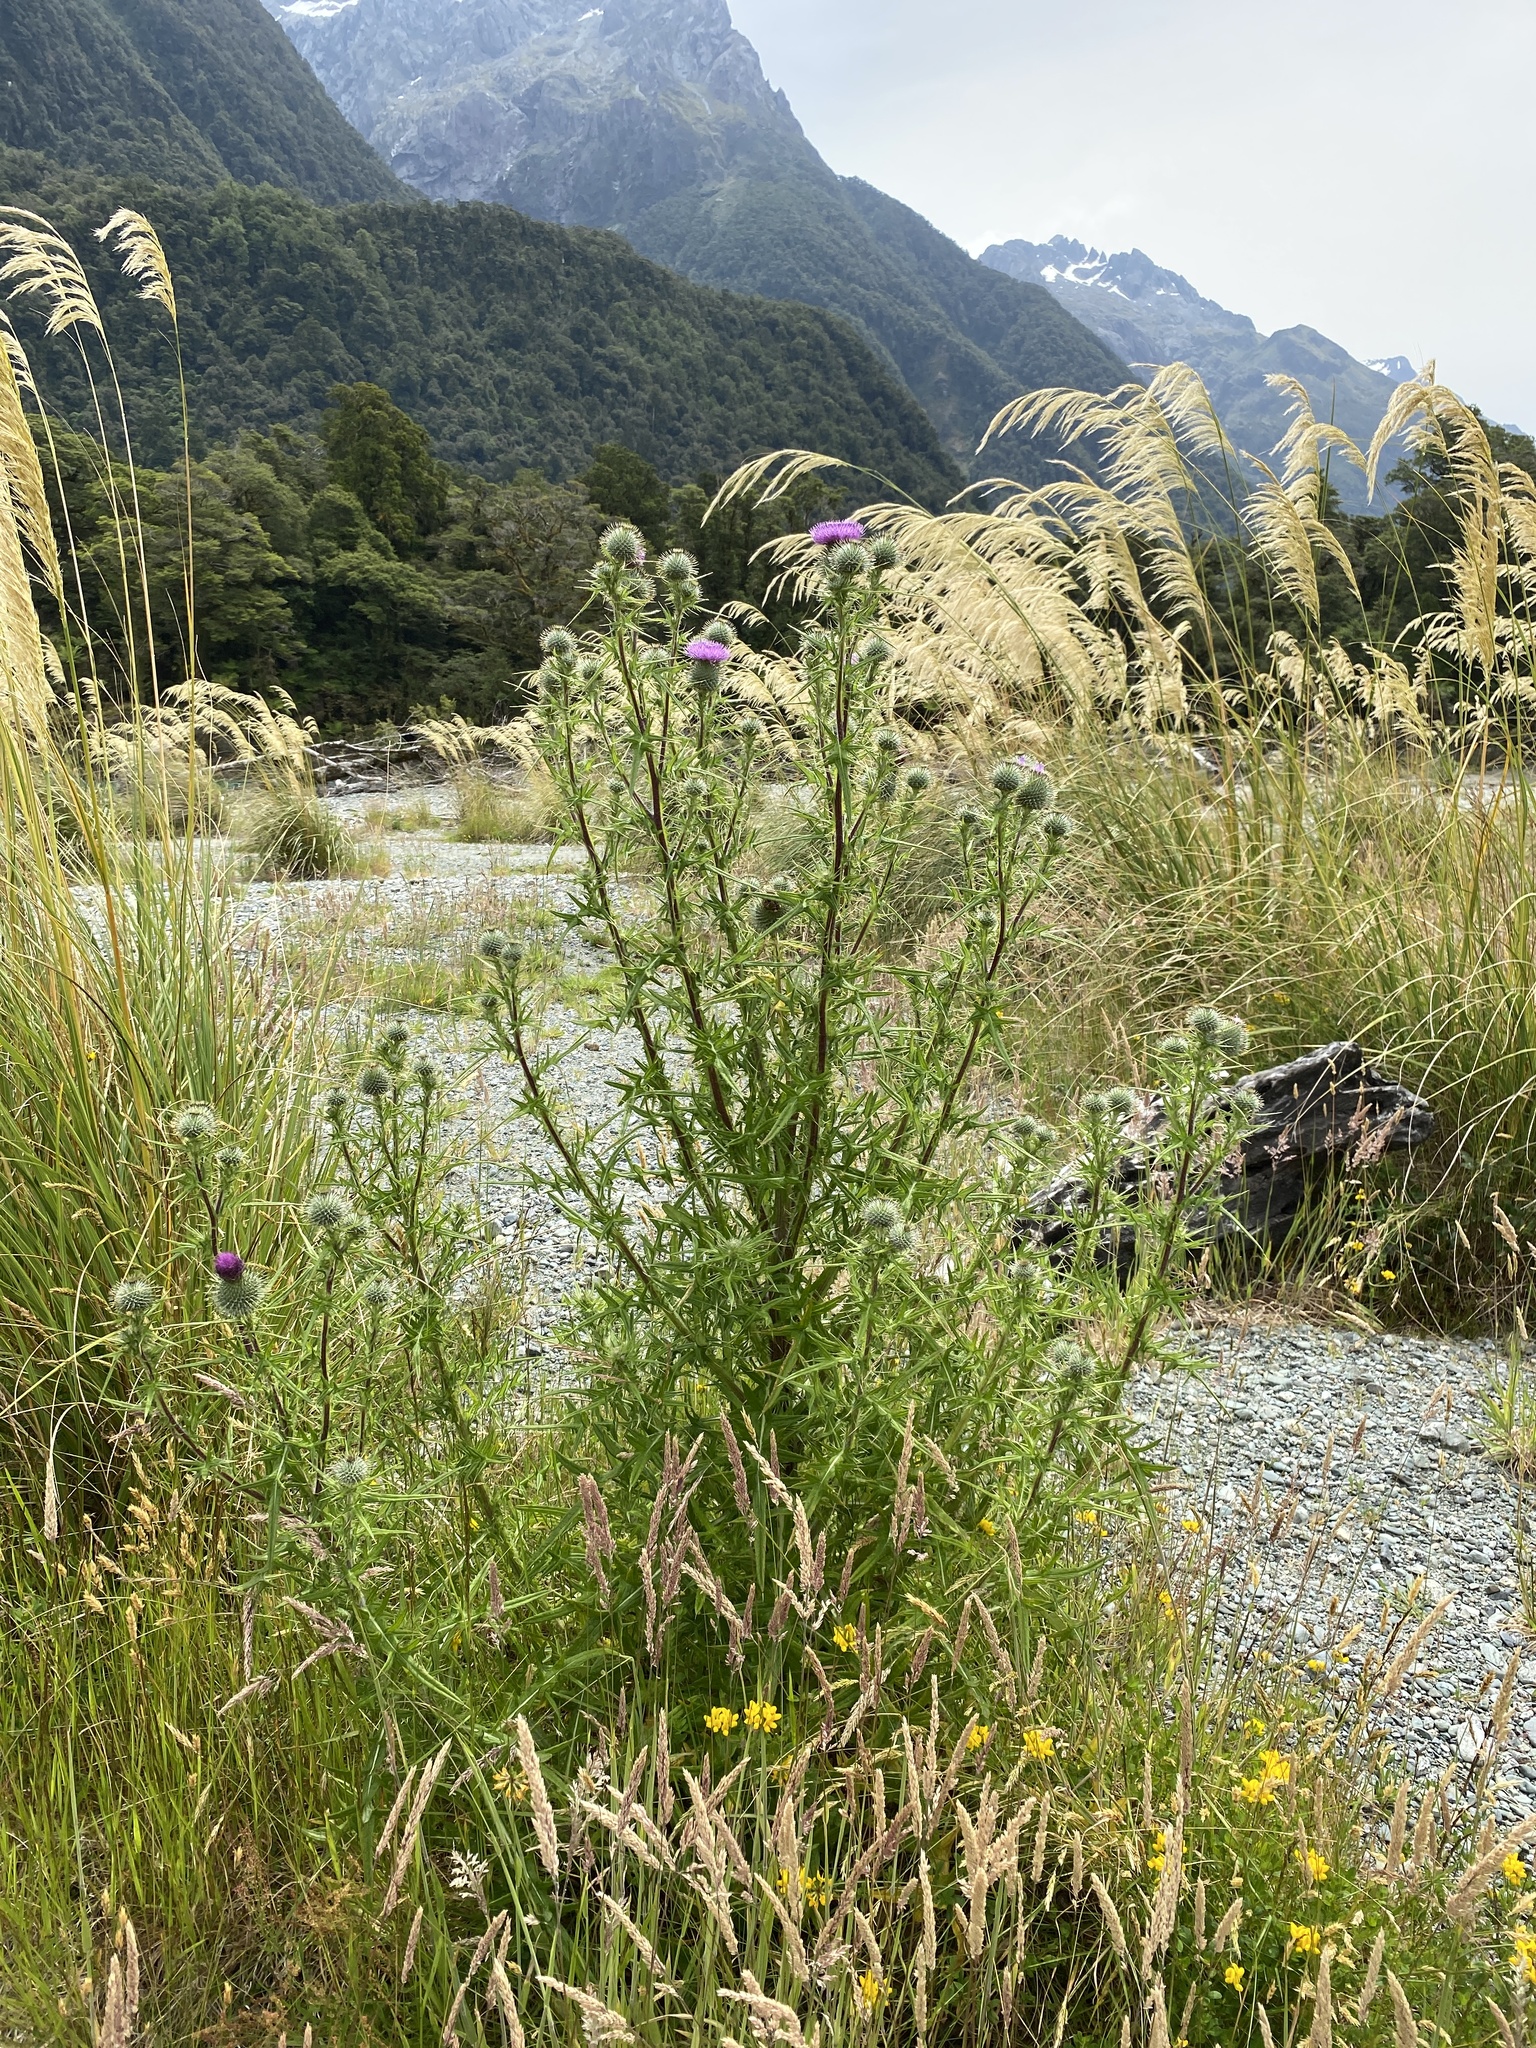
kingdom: Plantae
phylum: Tracheophyta
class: Magnoliopsida
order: Asterales
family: Asteraceae
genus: Cirsium
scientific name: Cirsium vulgare
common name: Bull thistle
